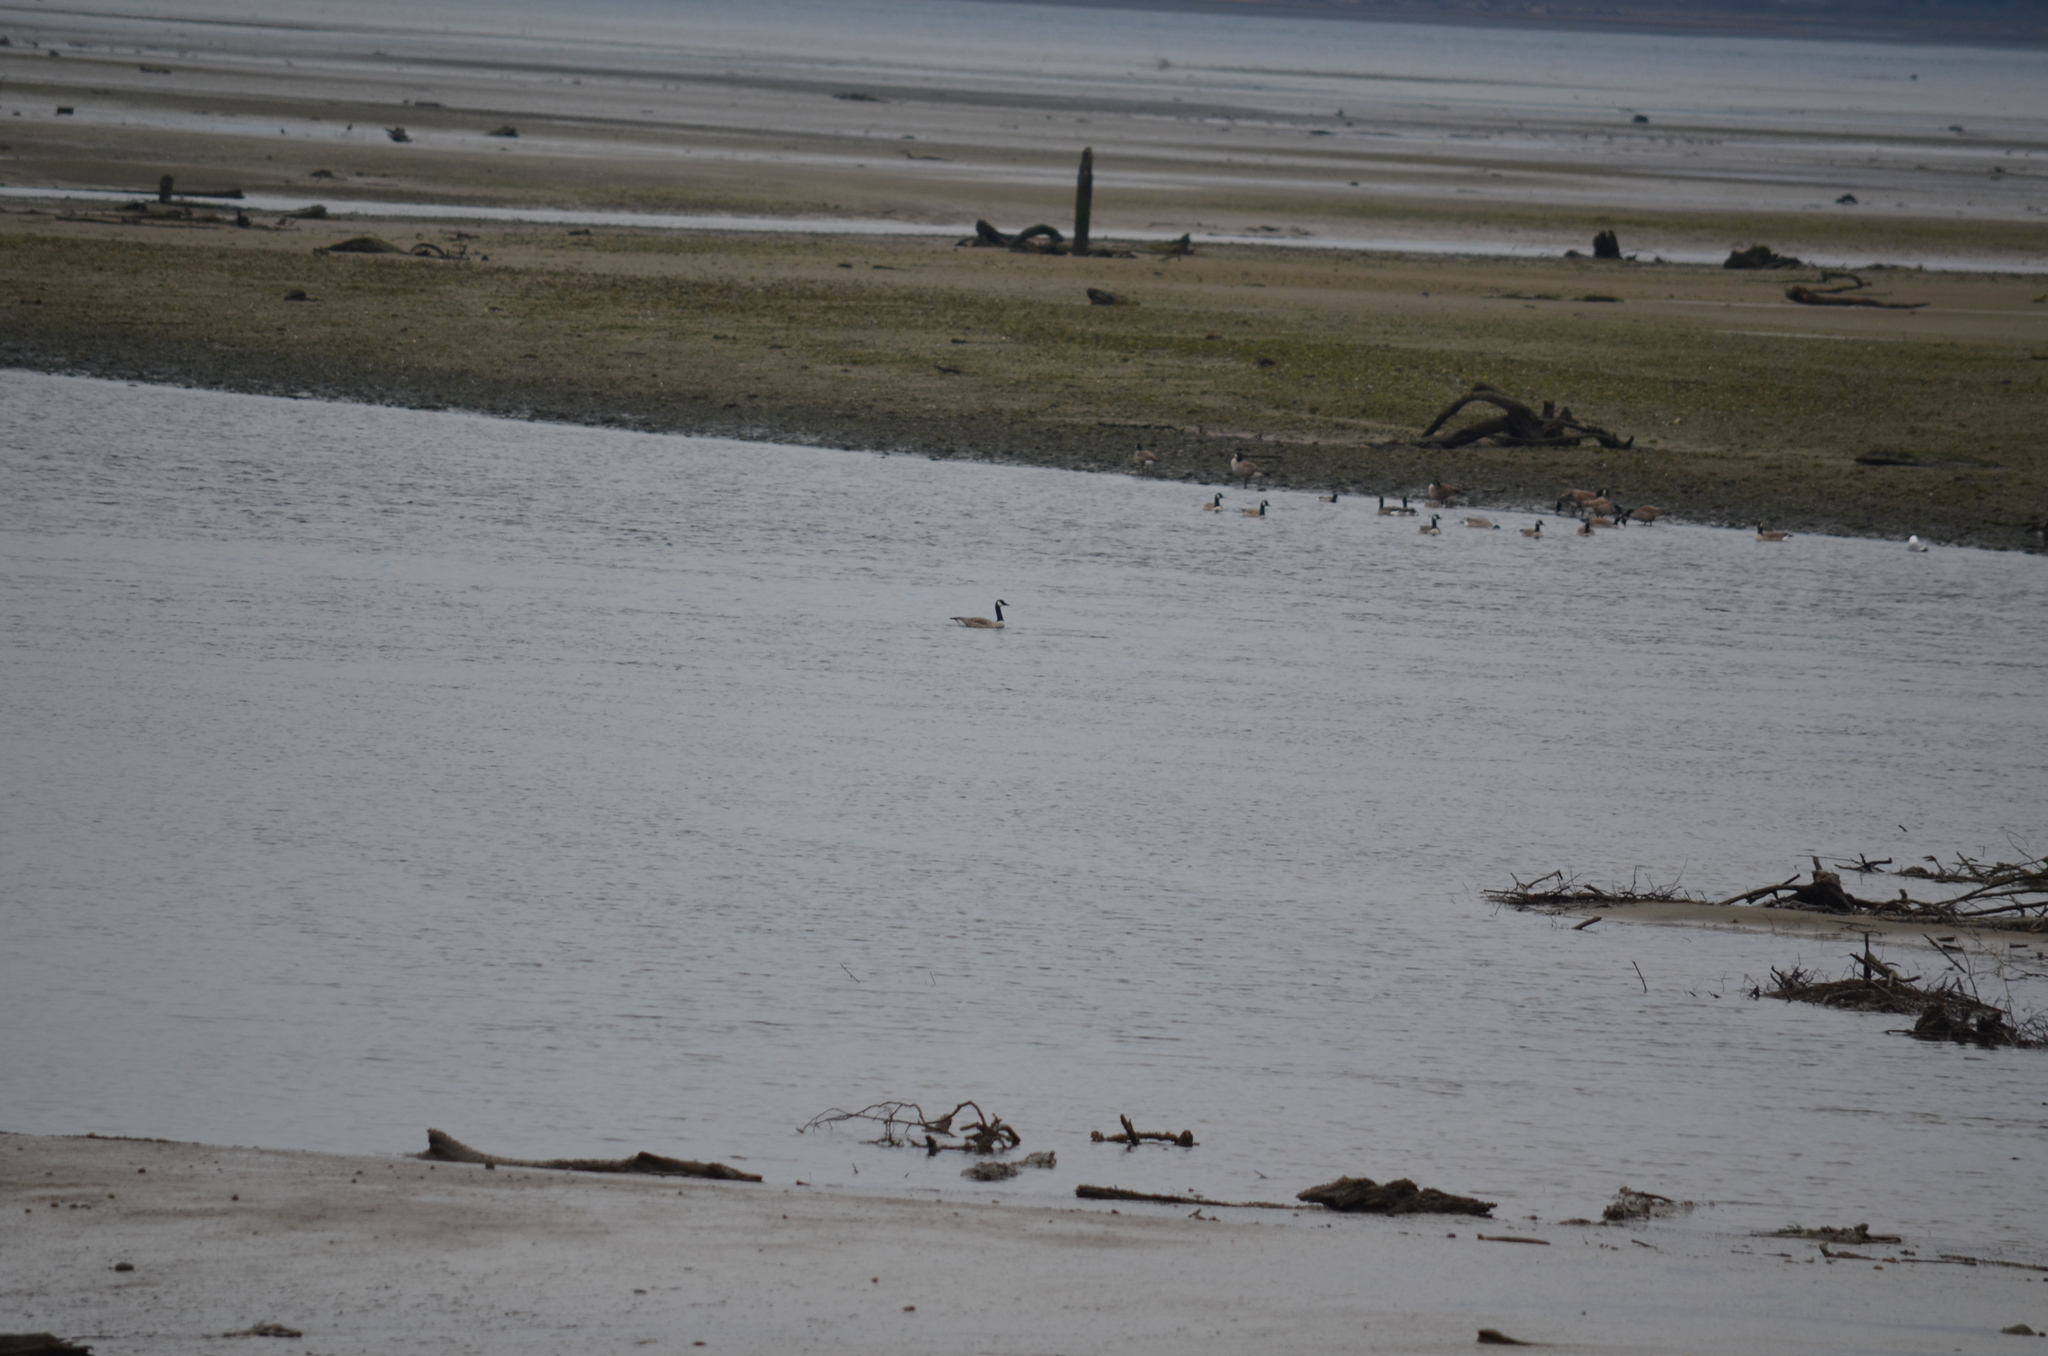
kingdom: Animalia
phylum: Chordata
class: Aves
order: Anseriformes
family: Anatidae
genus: Branta
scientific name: Branta canadensis
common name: Canada goose
